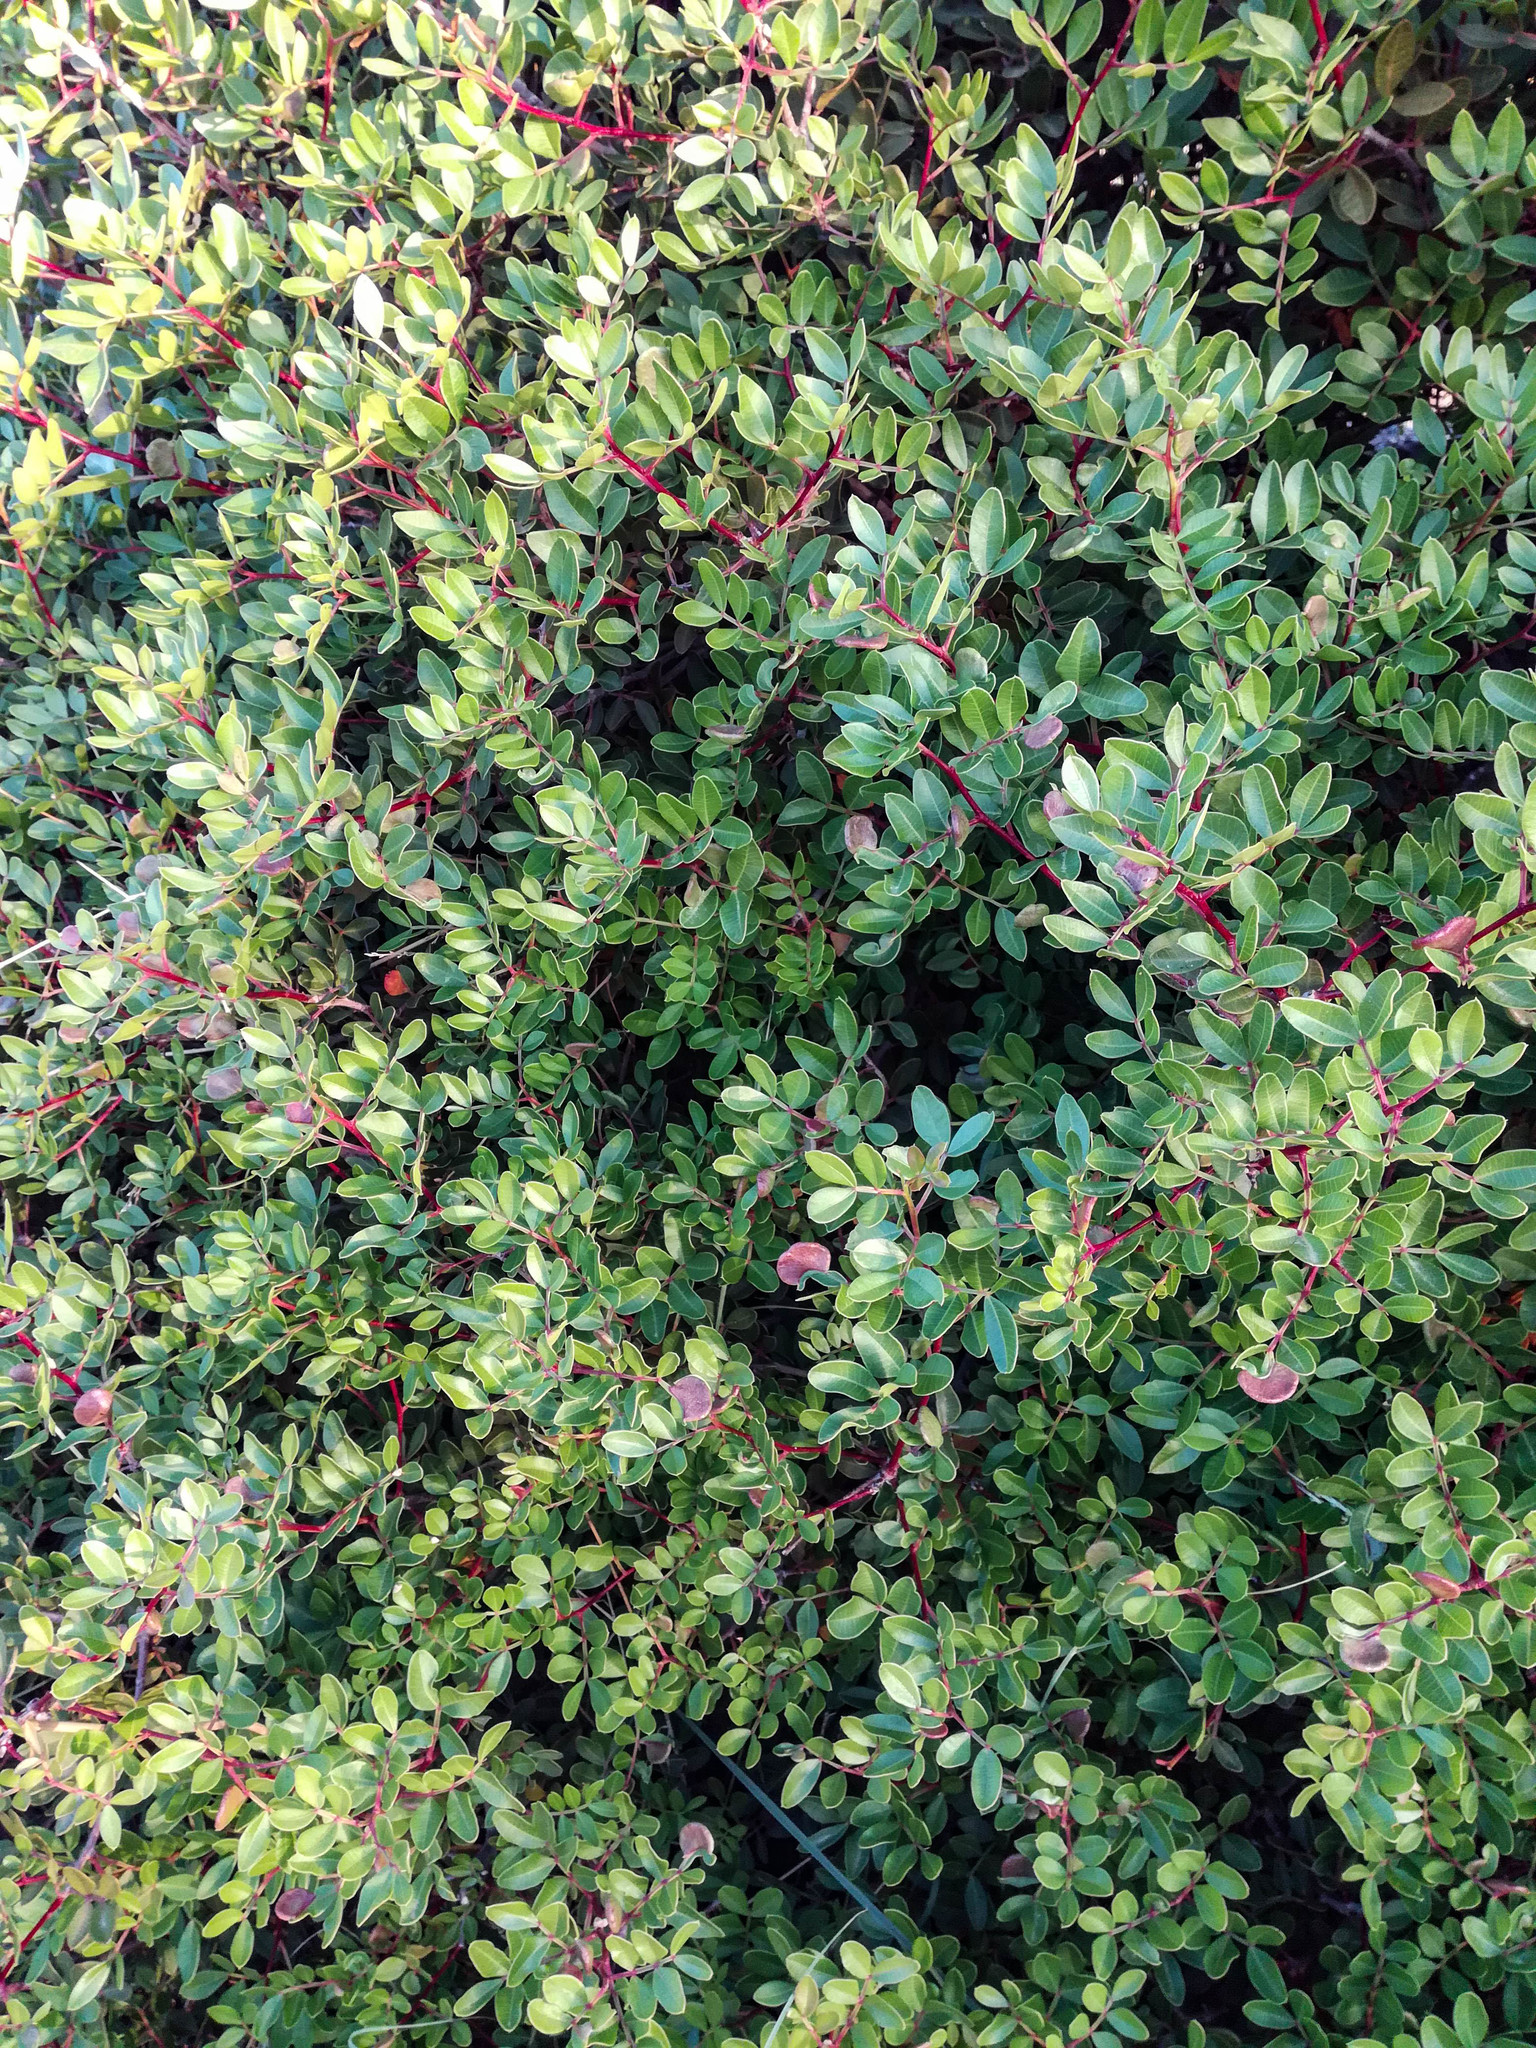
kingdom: Plantae
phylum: Tracheophyta
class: Magnoliopsida
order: Sapindales
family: Anacardiaceae
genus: Pistacia
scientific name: Pistacia lentiscus
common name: Lentisk
